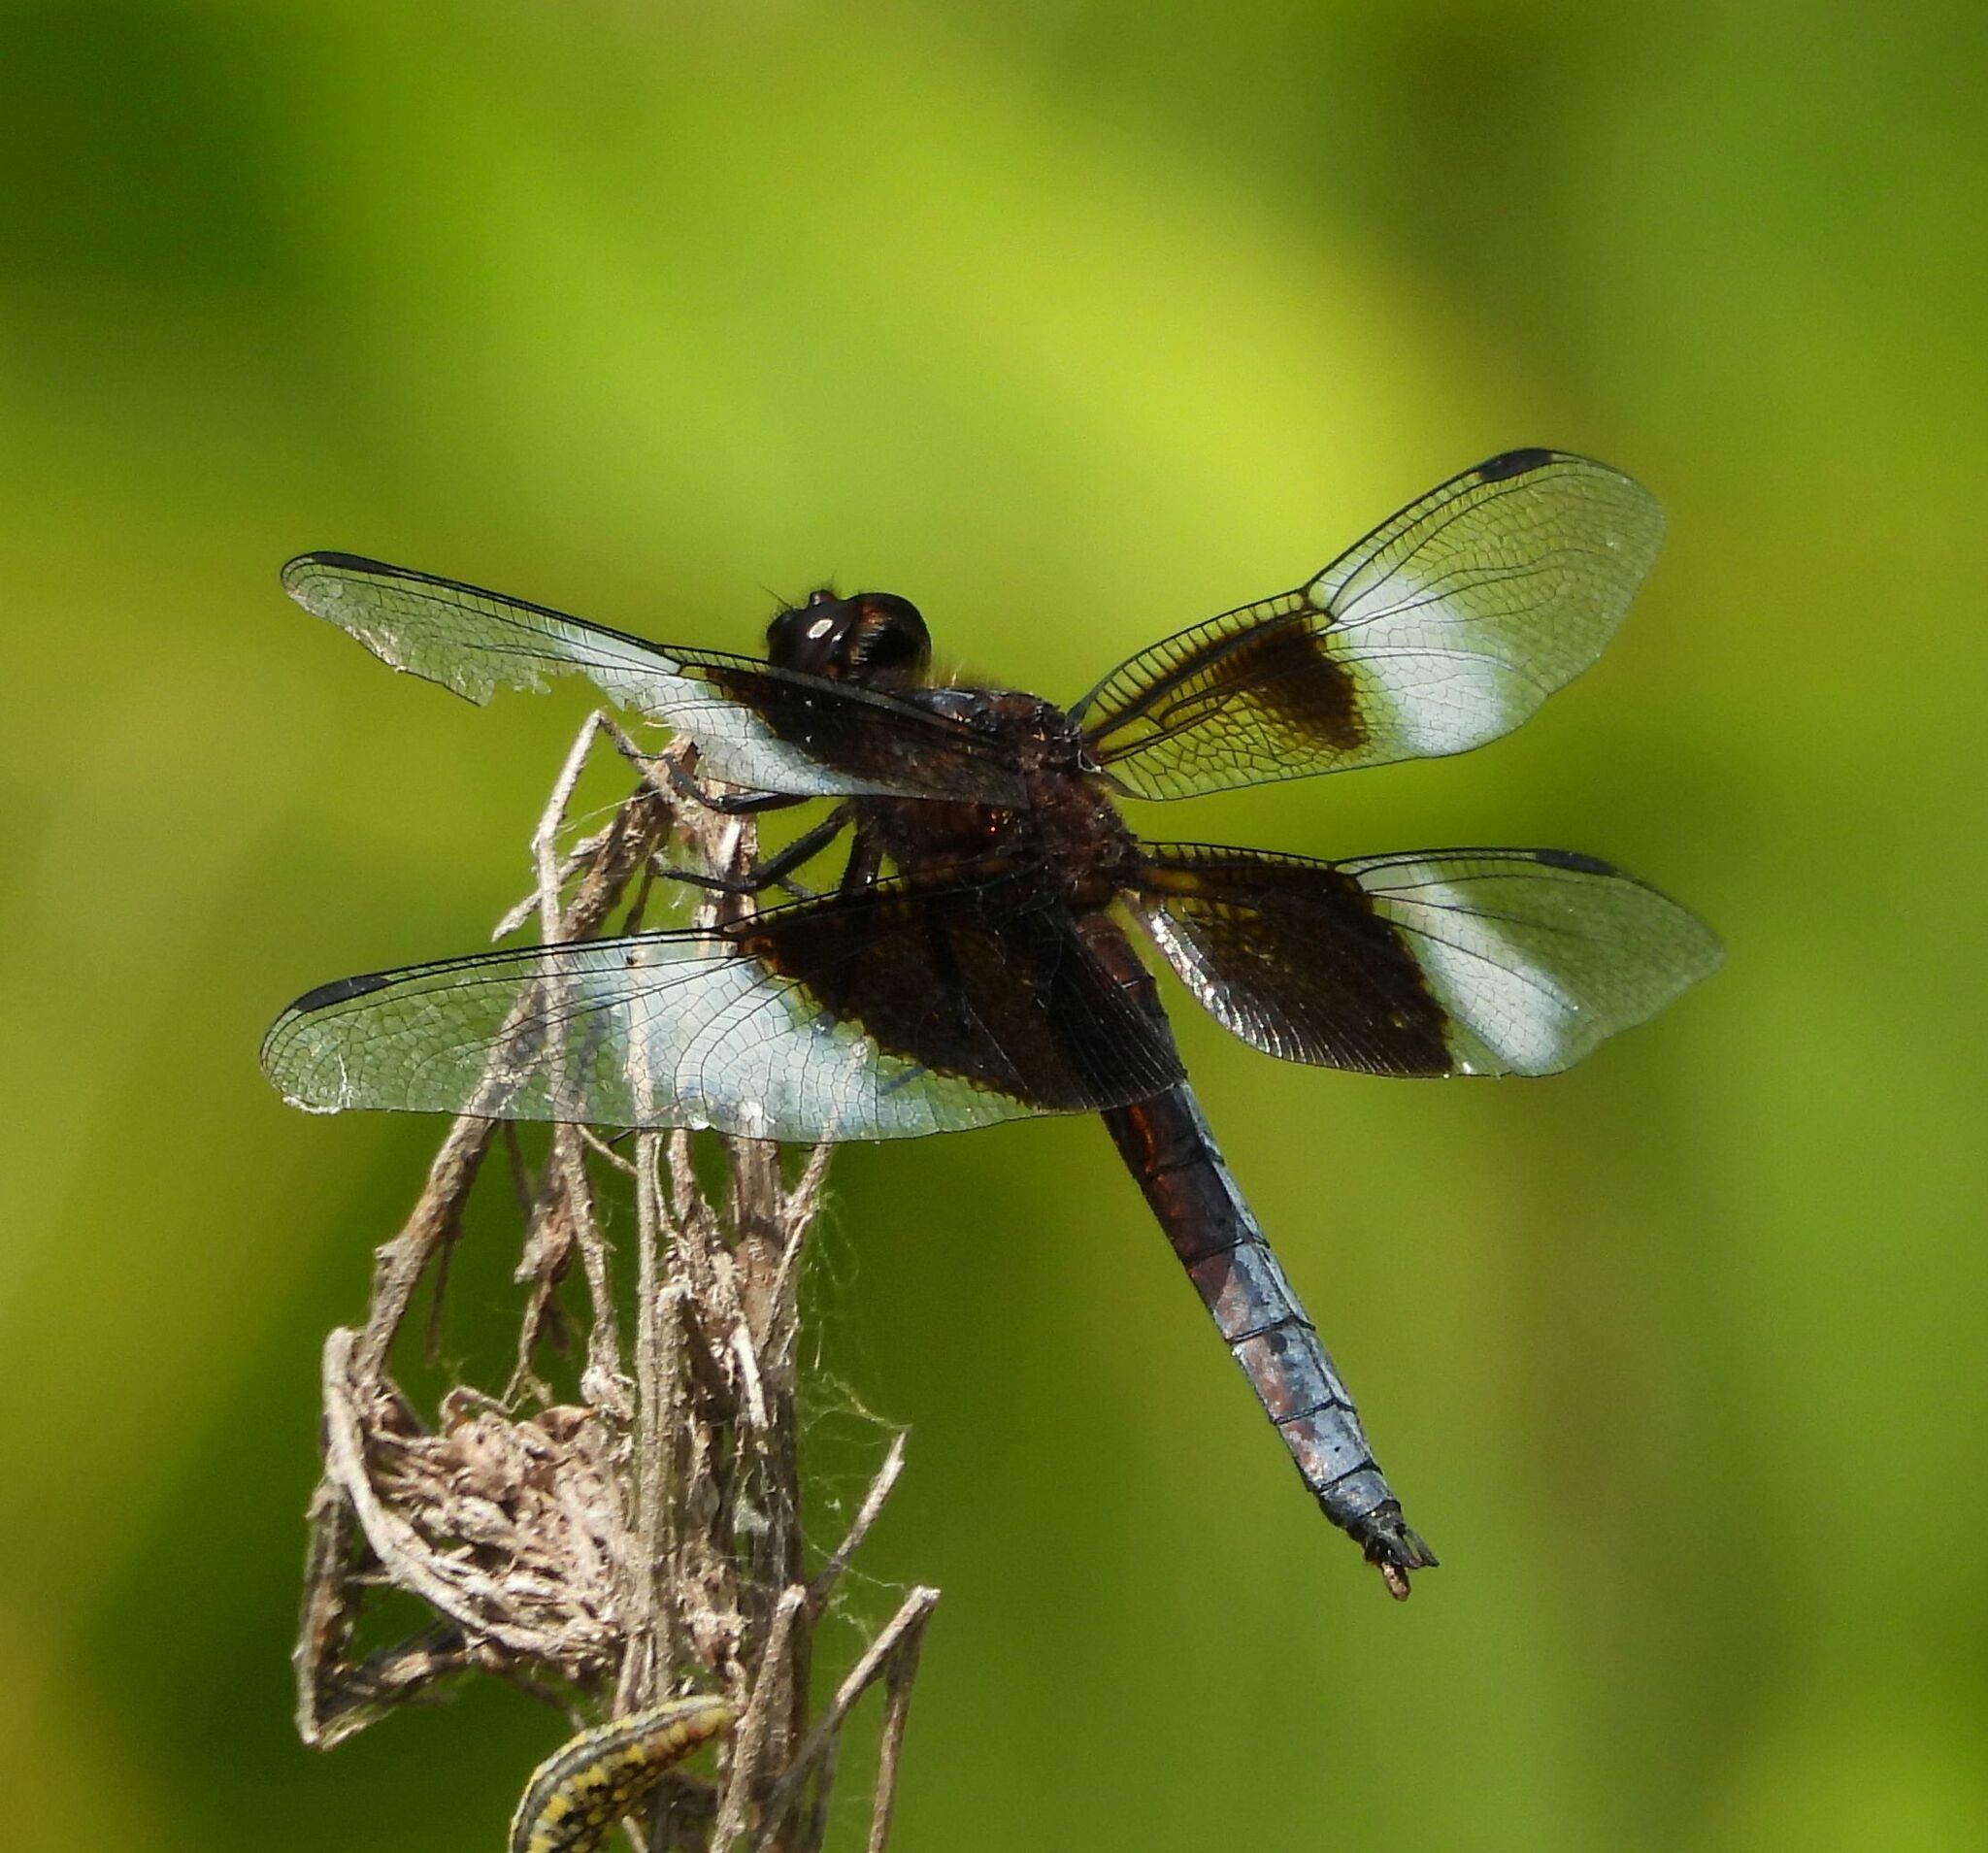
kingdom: Animalia
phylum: Arthropoda
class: Insecta
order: Odonata
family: Libellulidae
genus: Libellula
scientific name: Libellula luctuosa
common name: Widow skimmer
